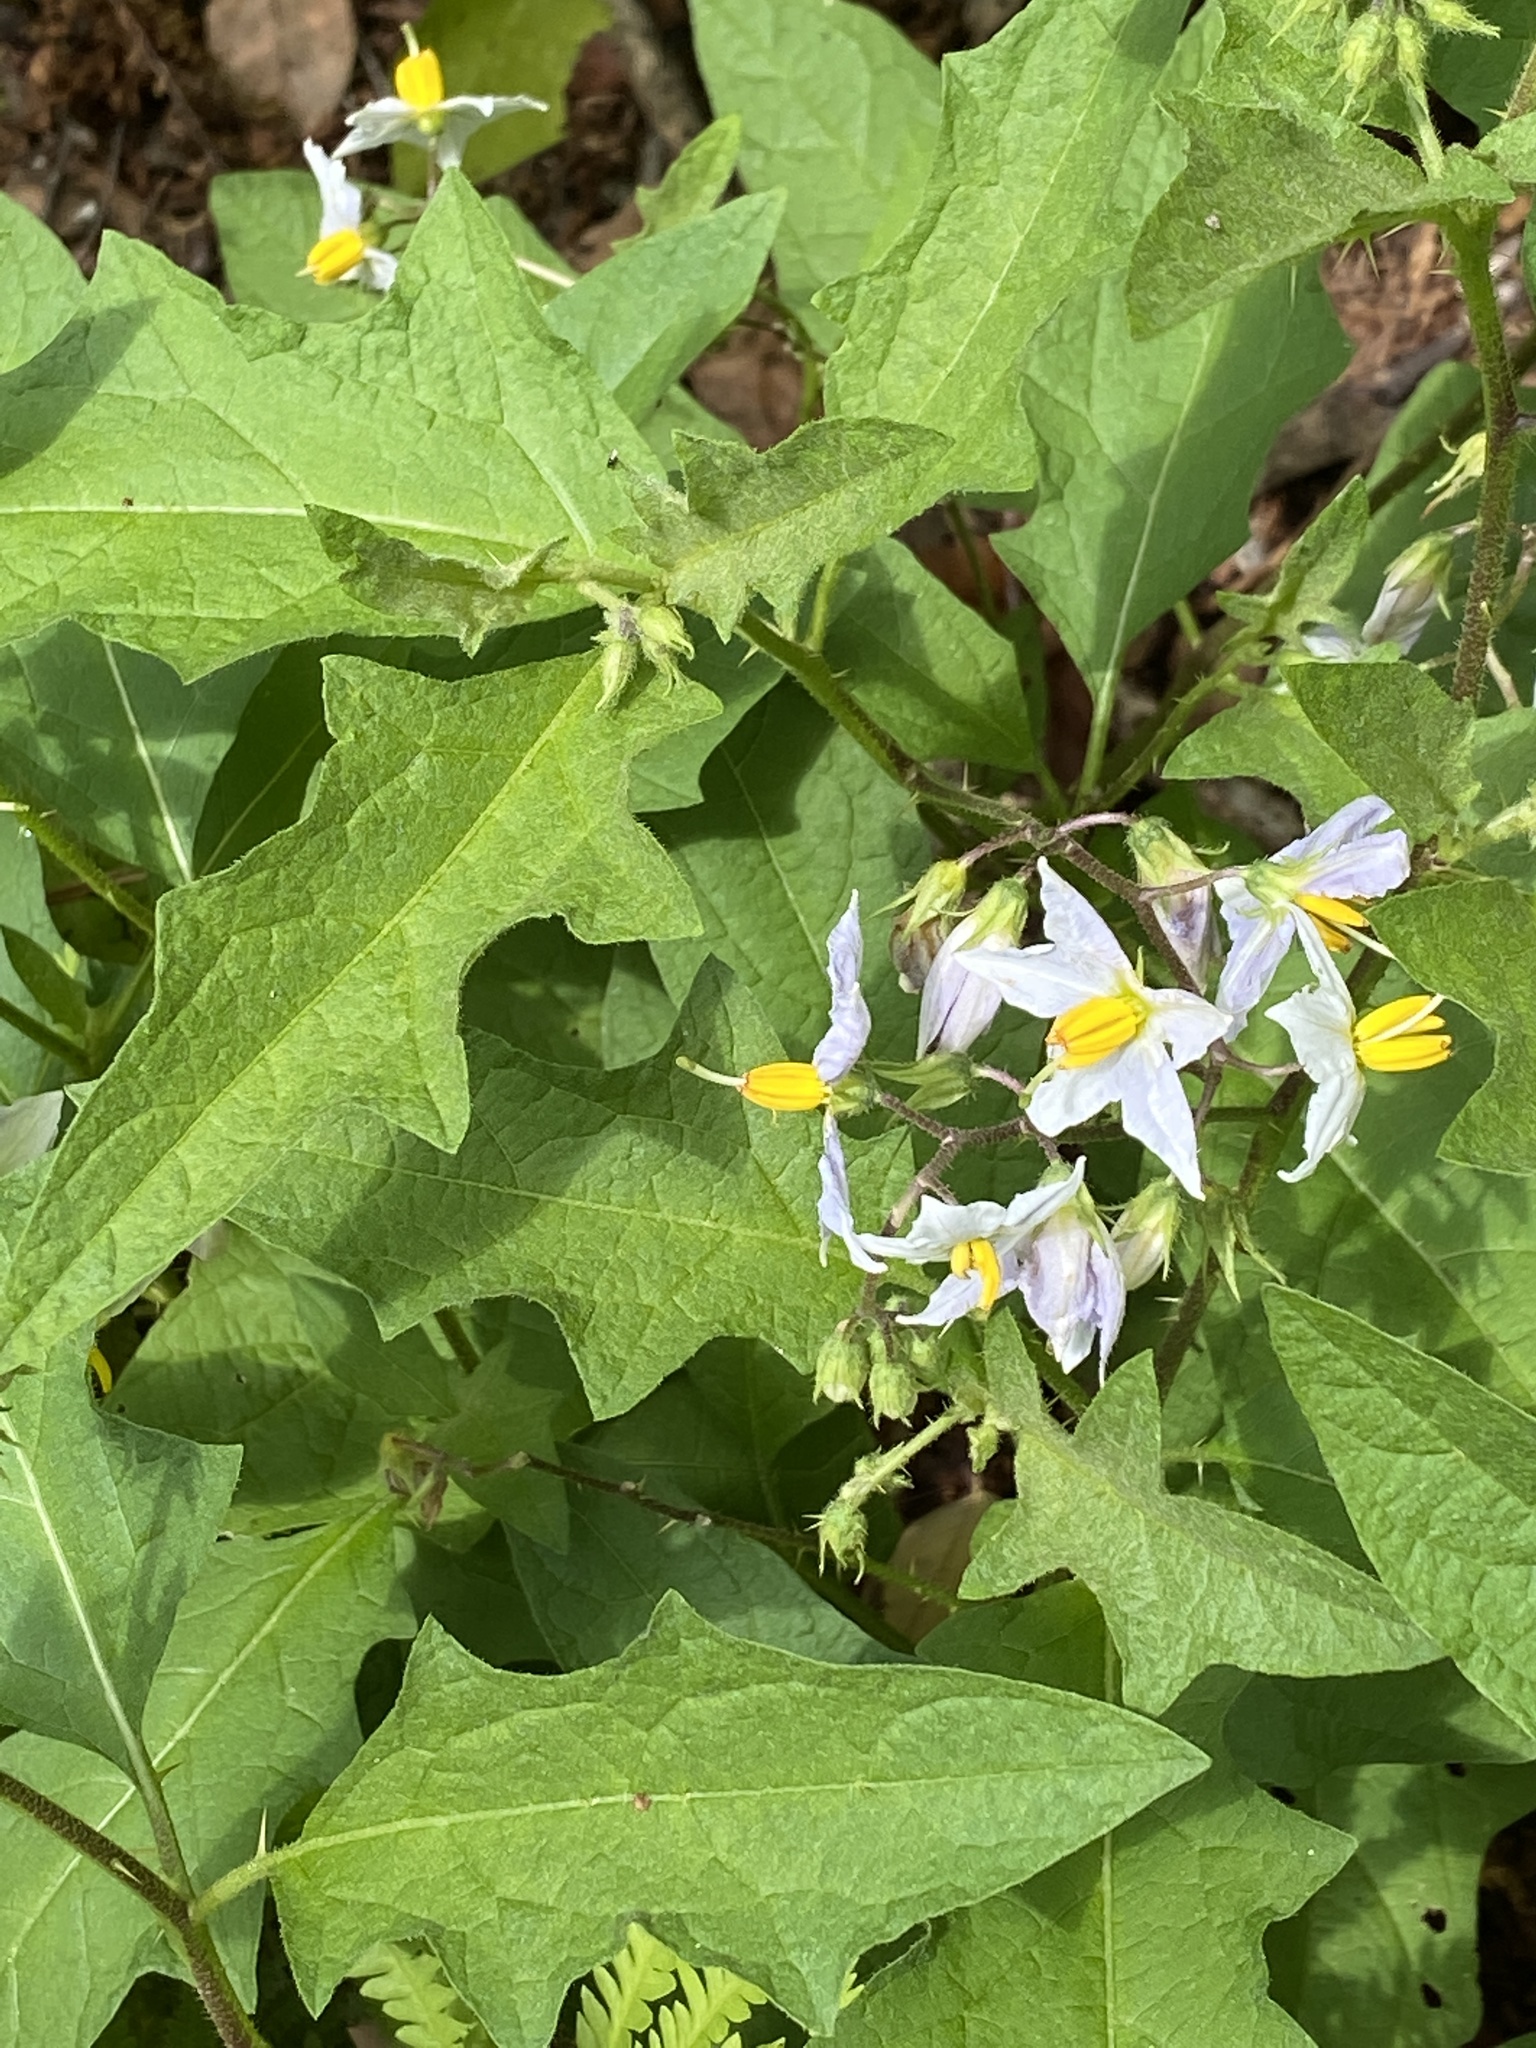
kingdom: Plantae
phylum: Tracheophyta
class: Magnoliopsida
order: Solanales
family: Solanaceae
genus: Solanum
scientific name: Solanum carolinense
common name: Horse-nettle
